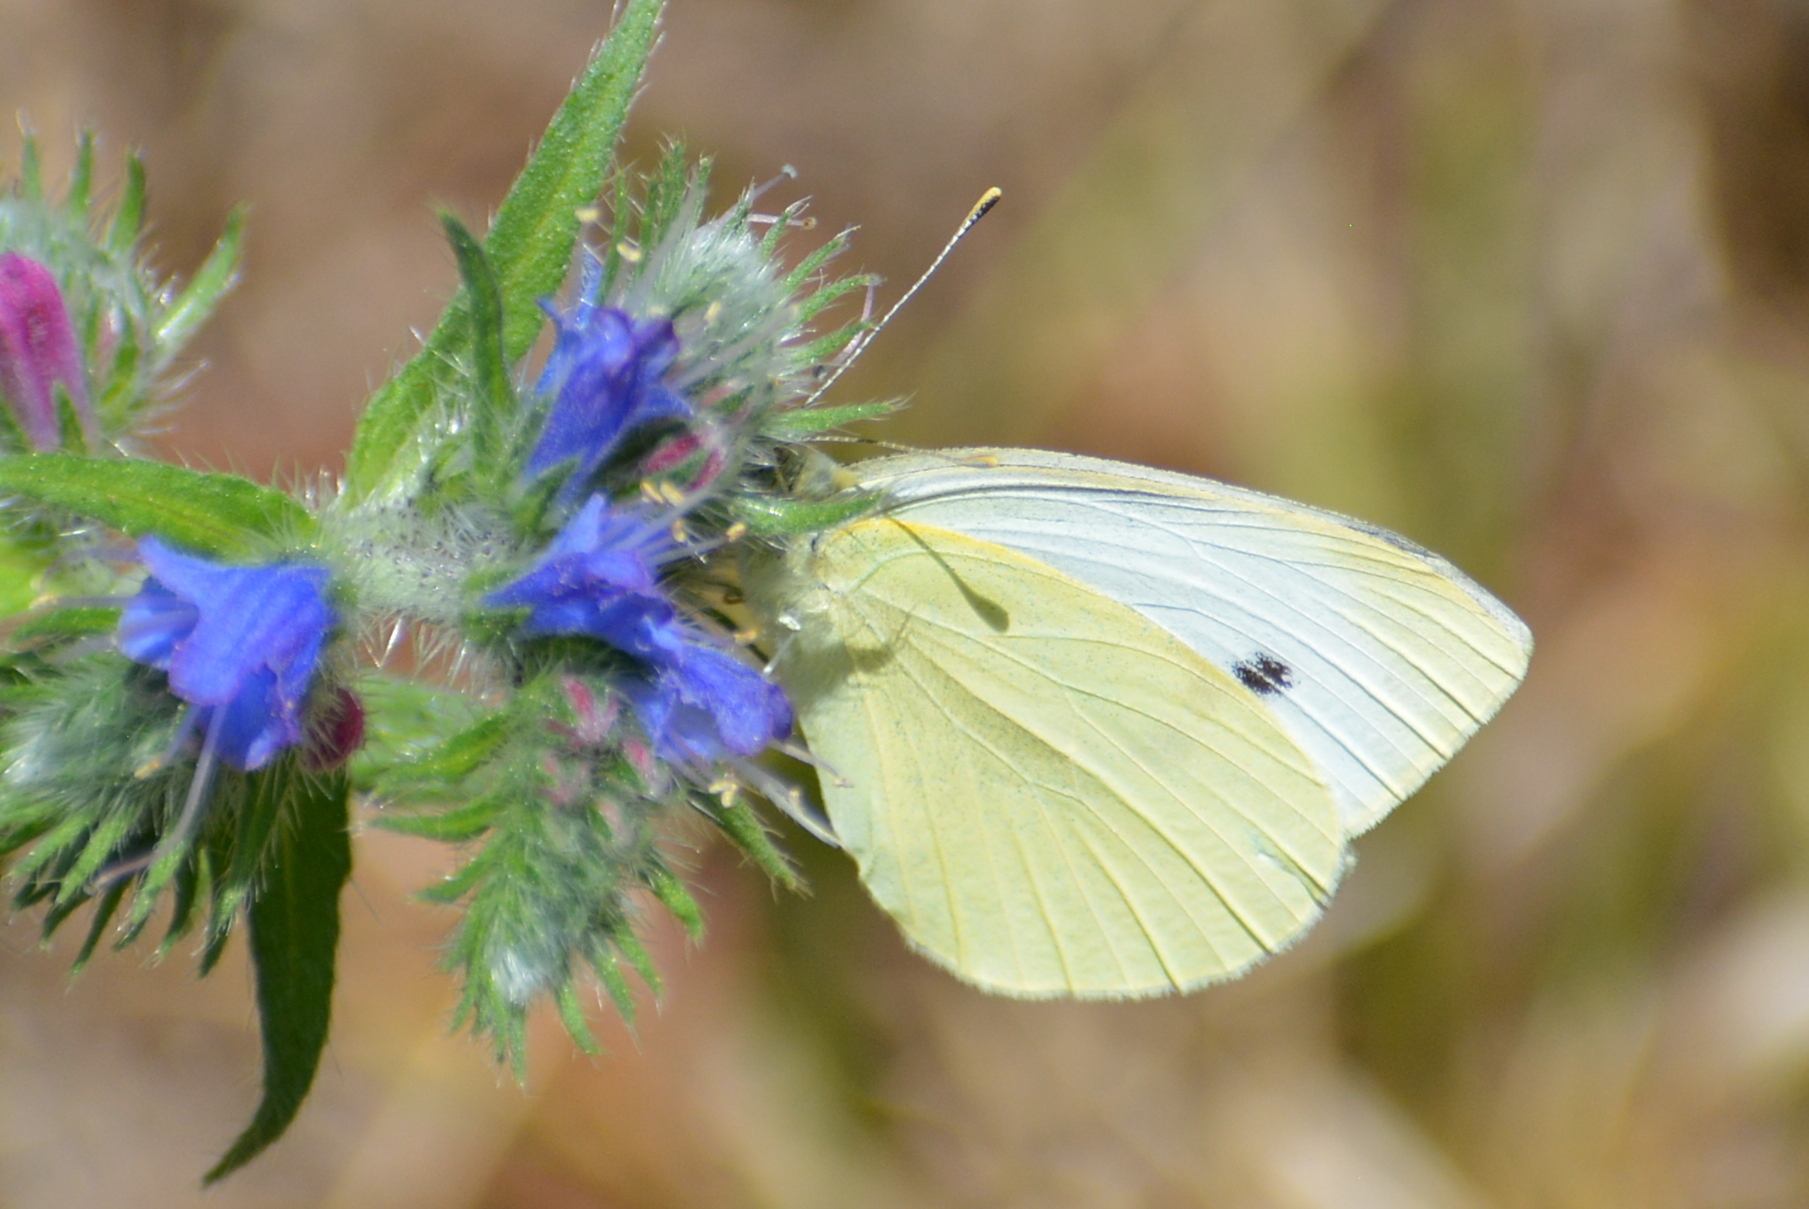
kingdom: Animalia
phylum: Arthropoda
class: Insecta
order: Lepidoptera
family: Pieridae
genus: Pieris
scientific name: Pieris rapae
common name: Small white
